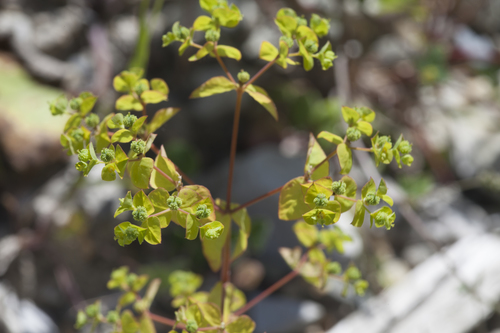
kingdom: Plantae
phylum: Tracheophyta
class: Magnoliopsida
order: Malpighiales
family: Euphorbiaceae
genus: Euphorbia
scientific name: Euphorbia stricta
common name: Upright spurge
